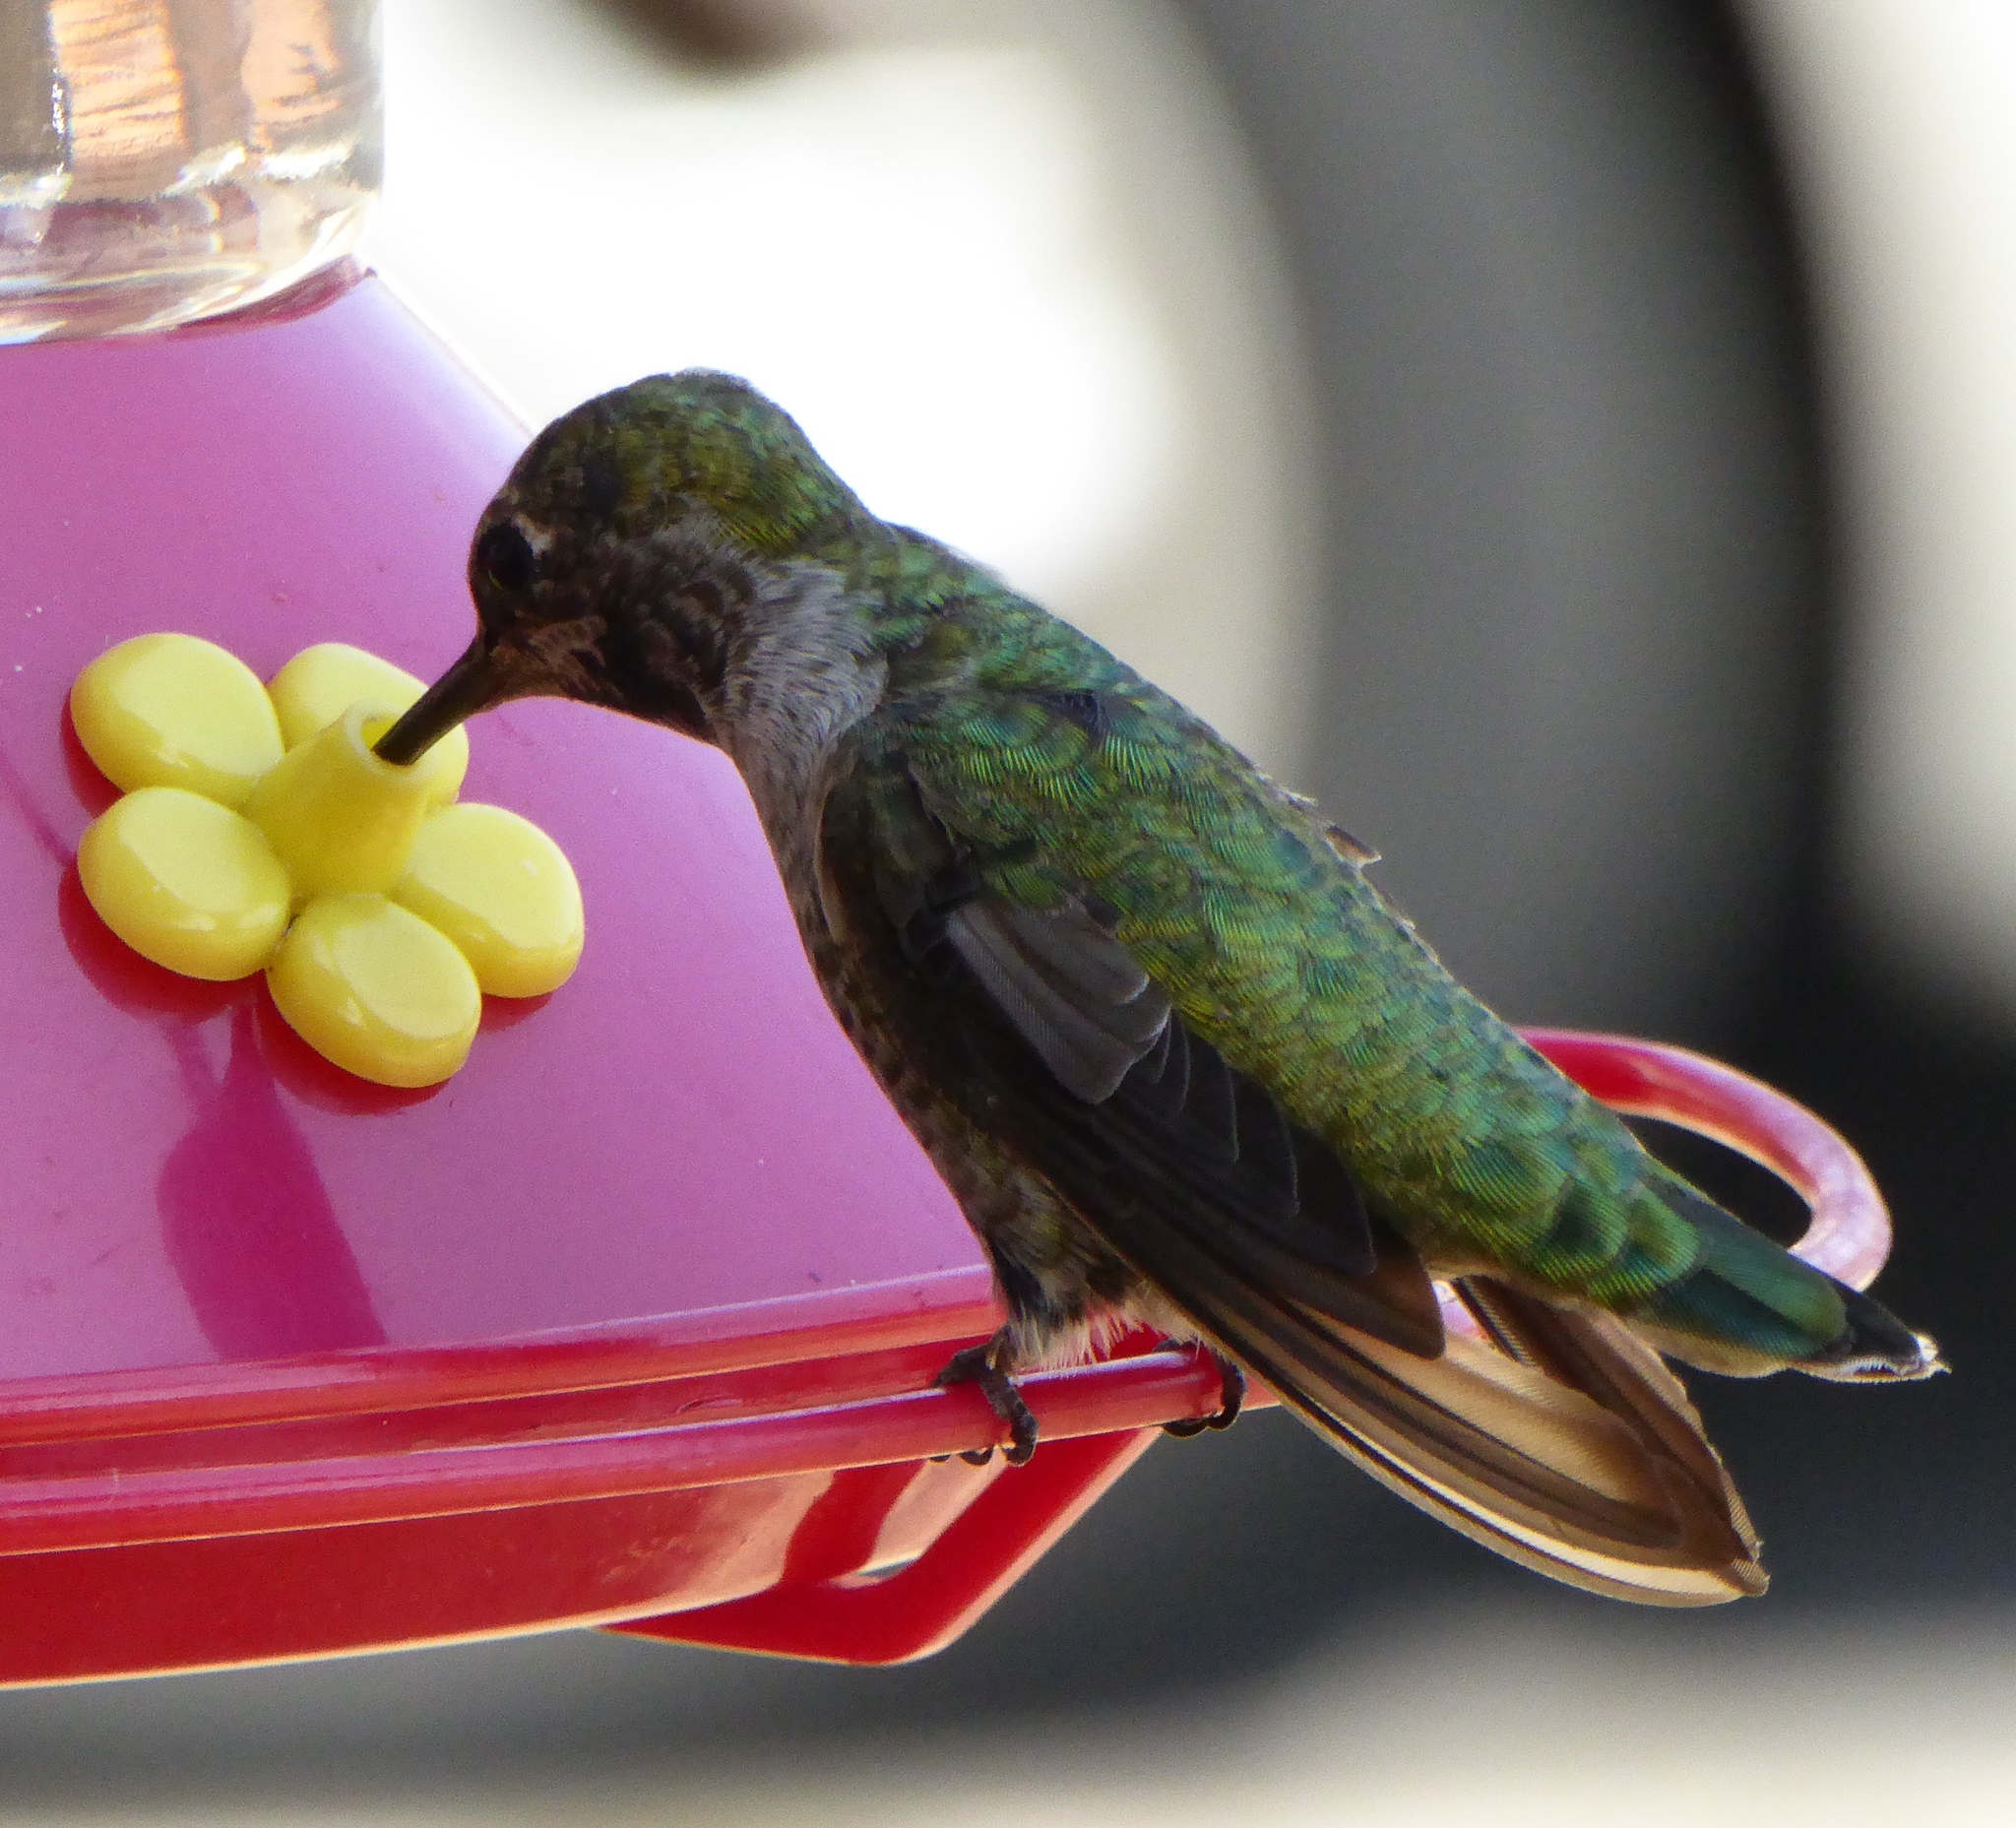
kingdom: Animalia
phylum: Chordata
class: Aves
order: Apodiformes
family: Trochilidae
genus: Calypte
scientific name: Calypte anna
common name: Anna's hummingbird
